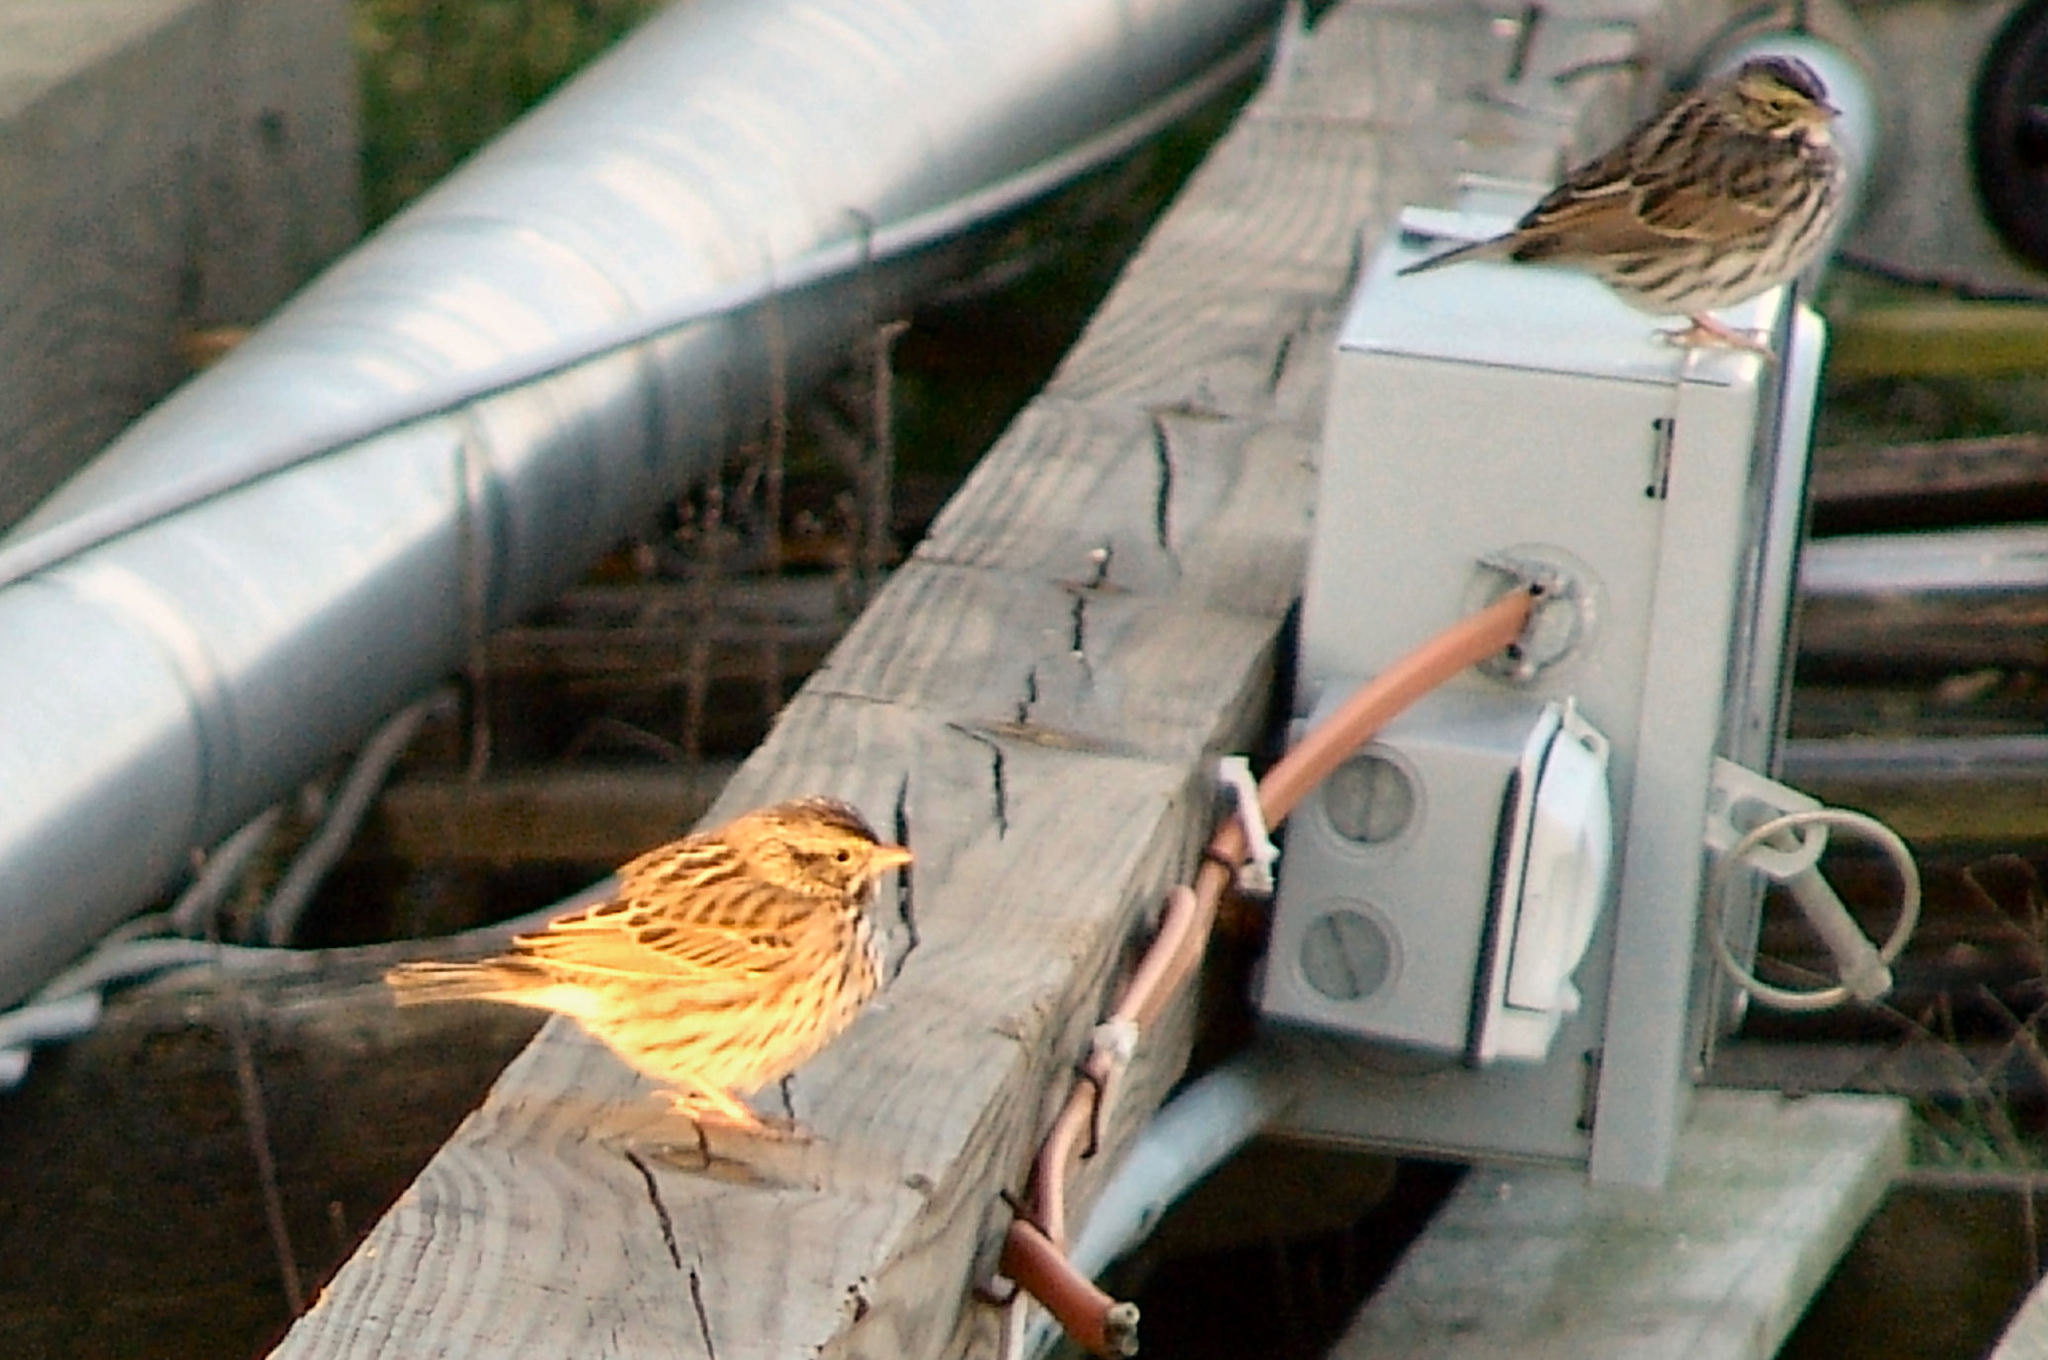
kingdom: Animalia
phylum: Chordata
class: Aves
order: Passeriformes
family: Passerellidae
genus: Passerculus
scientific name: Passerculus sandwichensis
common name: Savannah sparrow
